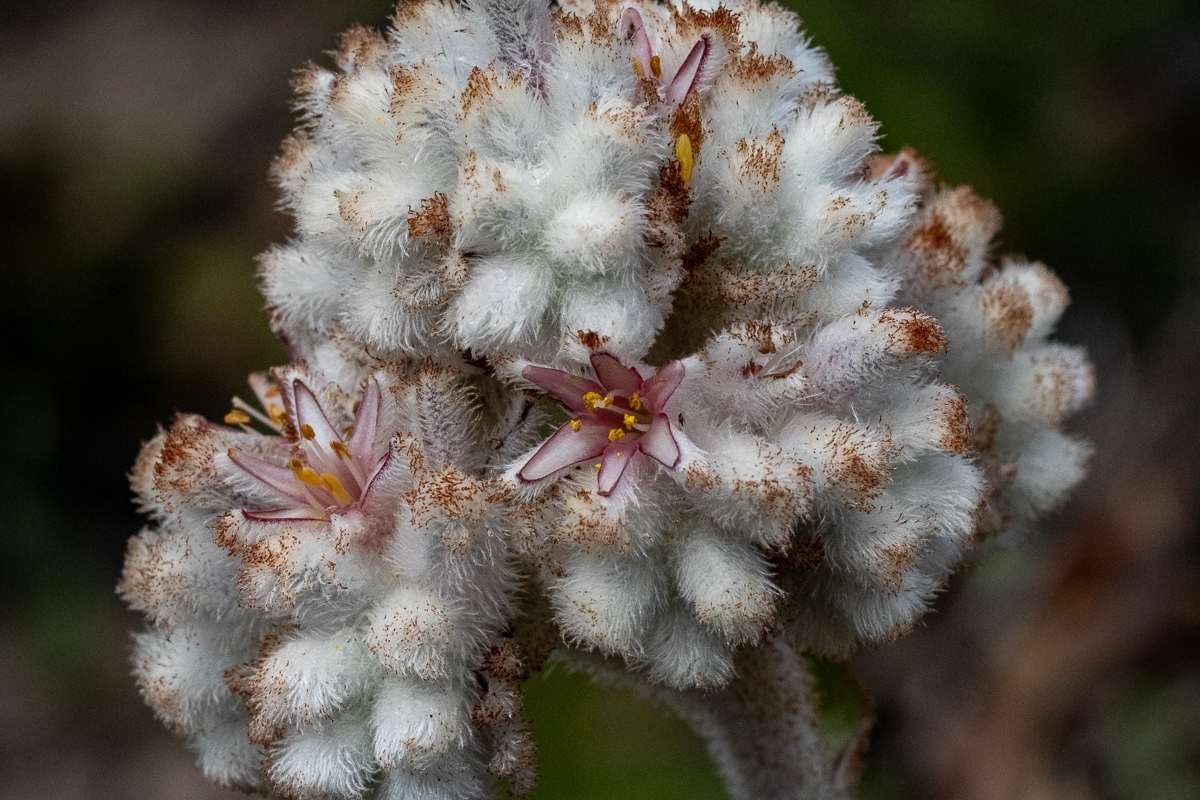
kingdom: Plantae
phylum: Tracheophyta
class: Liliopsida
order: Asparagales
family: Lanariaceae
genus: Lanaria
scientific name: Lanaria lanata
